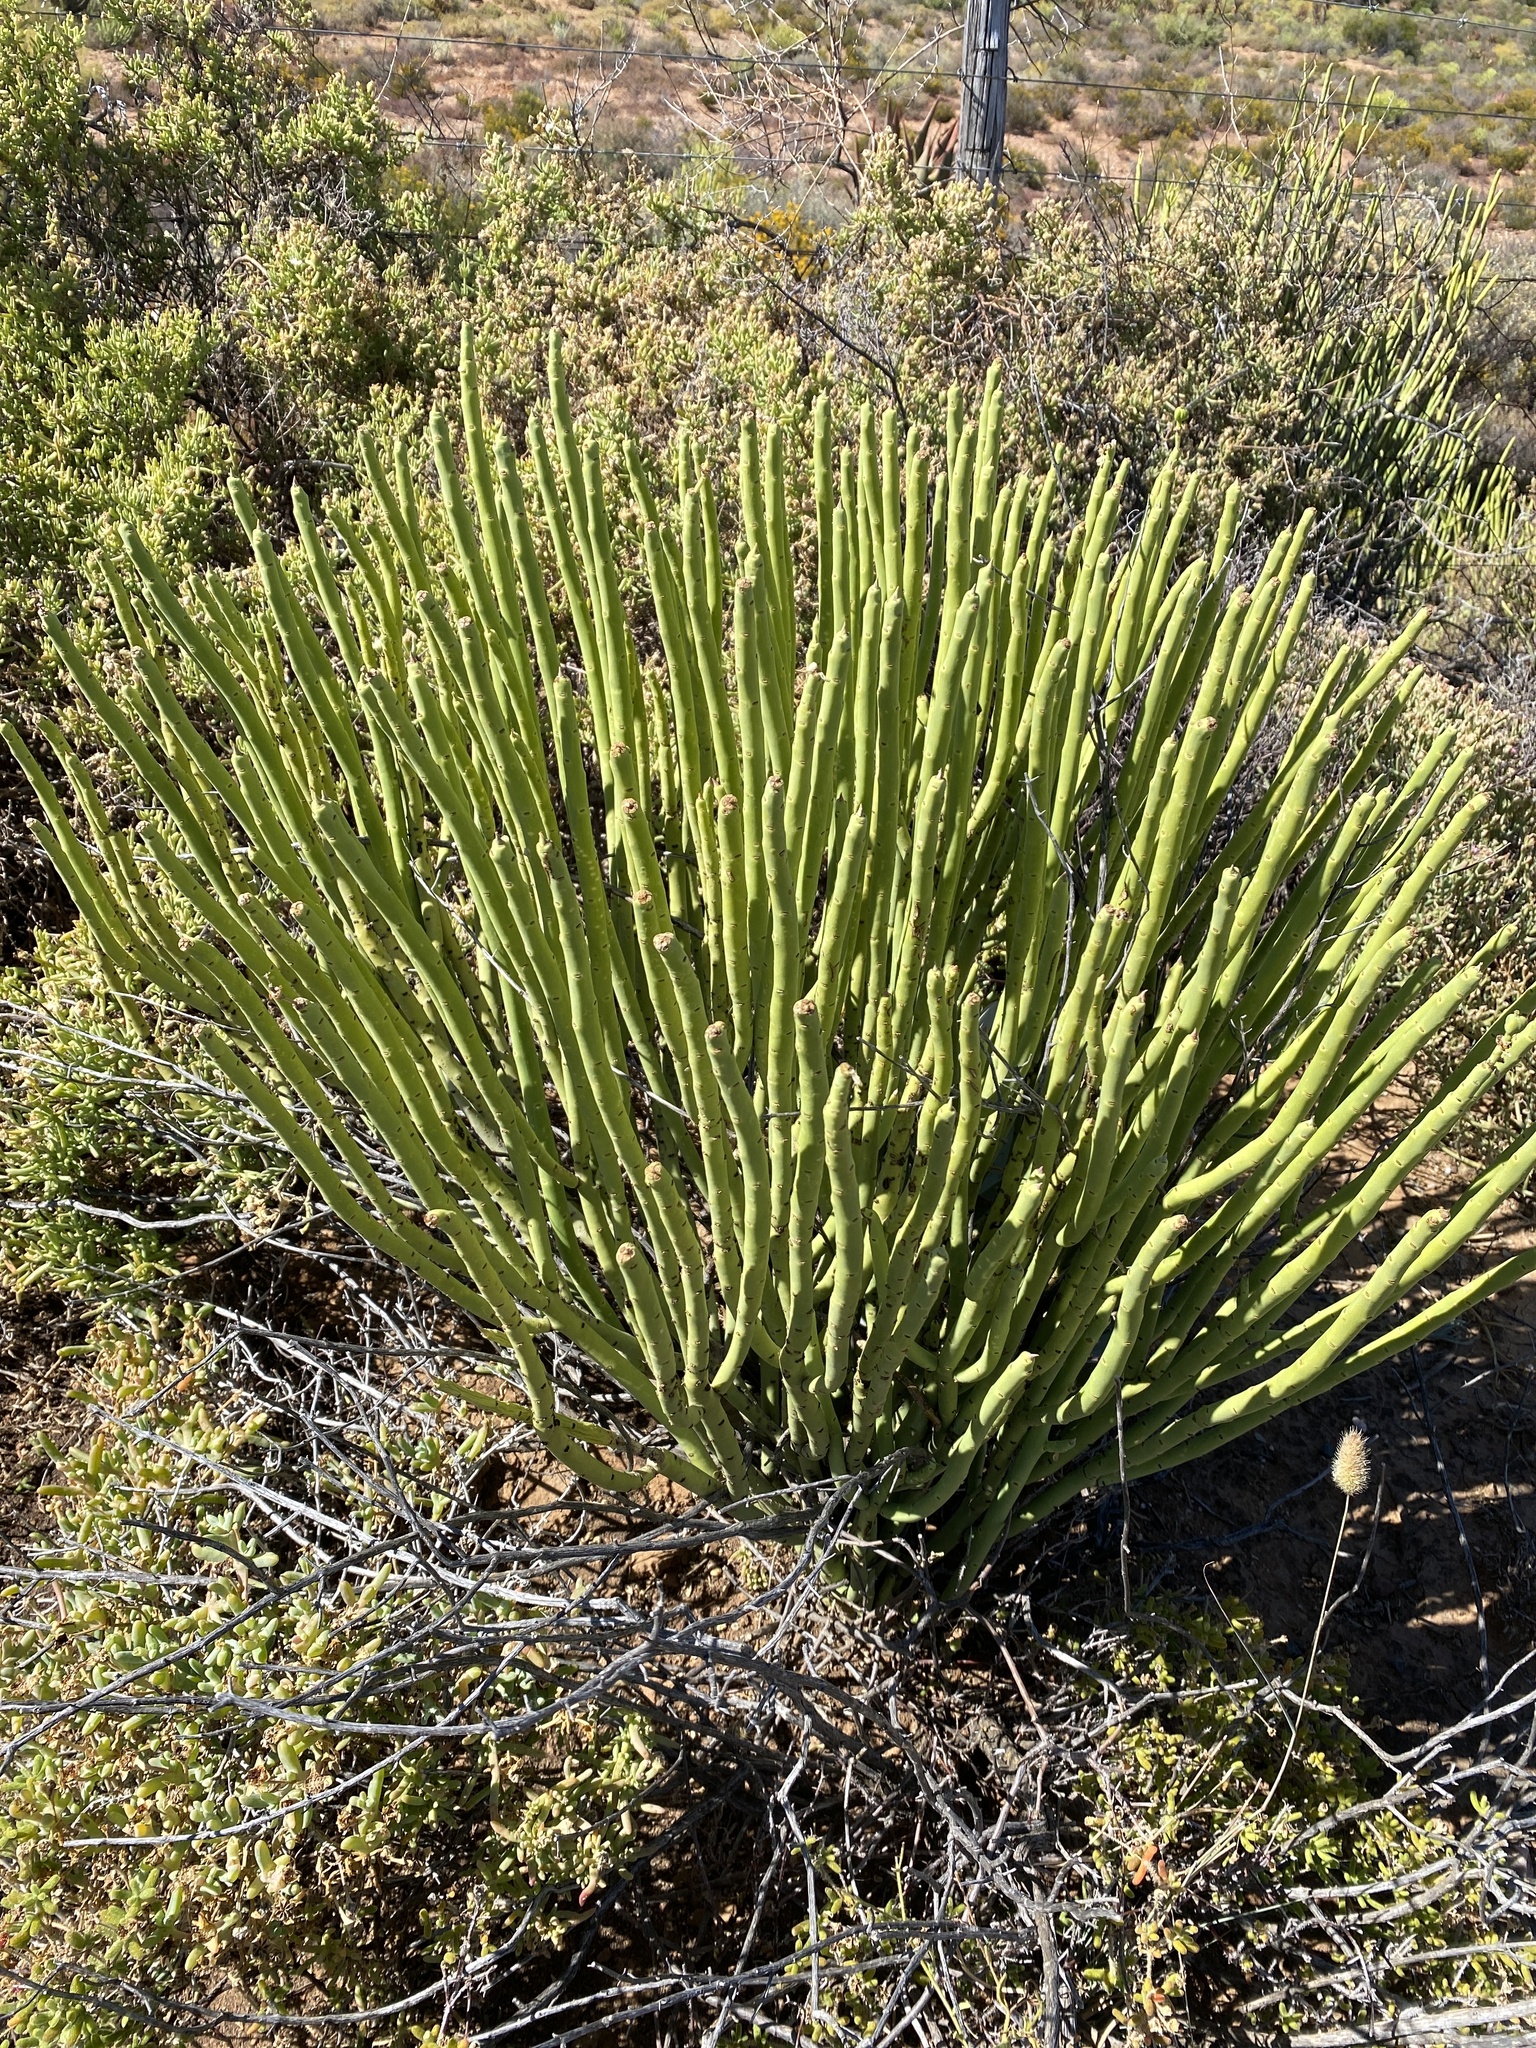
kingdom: Plantae
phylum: Tracheophyta
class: Magnoliopsida
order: Malpighiales
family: Euphorbiaceae
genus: Euphorbia
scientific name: Euphorbia mauritanica
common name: Jackal's-food
